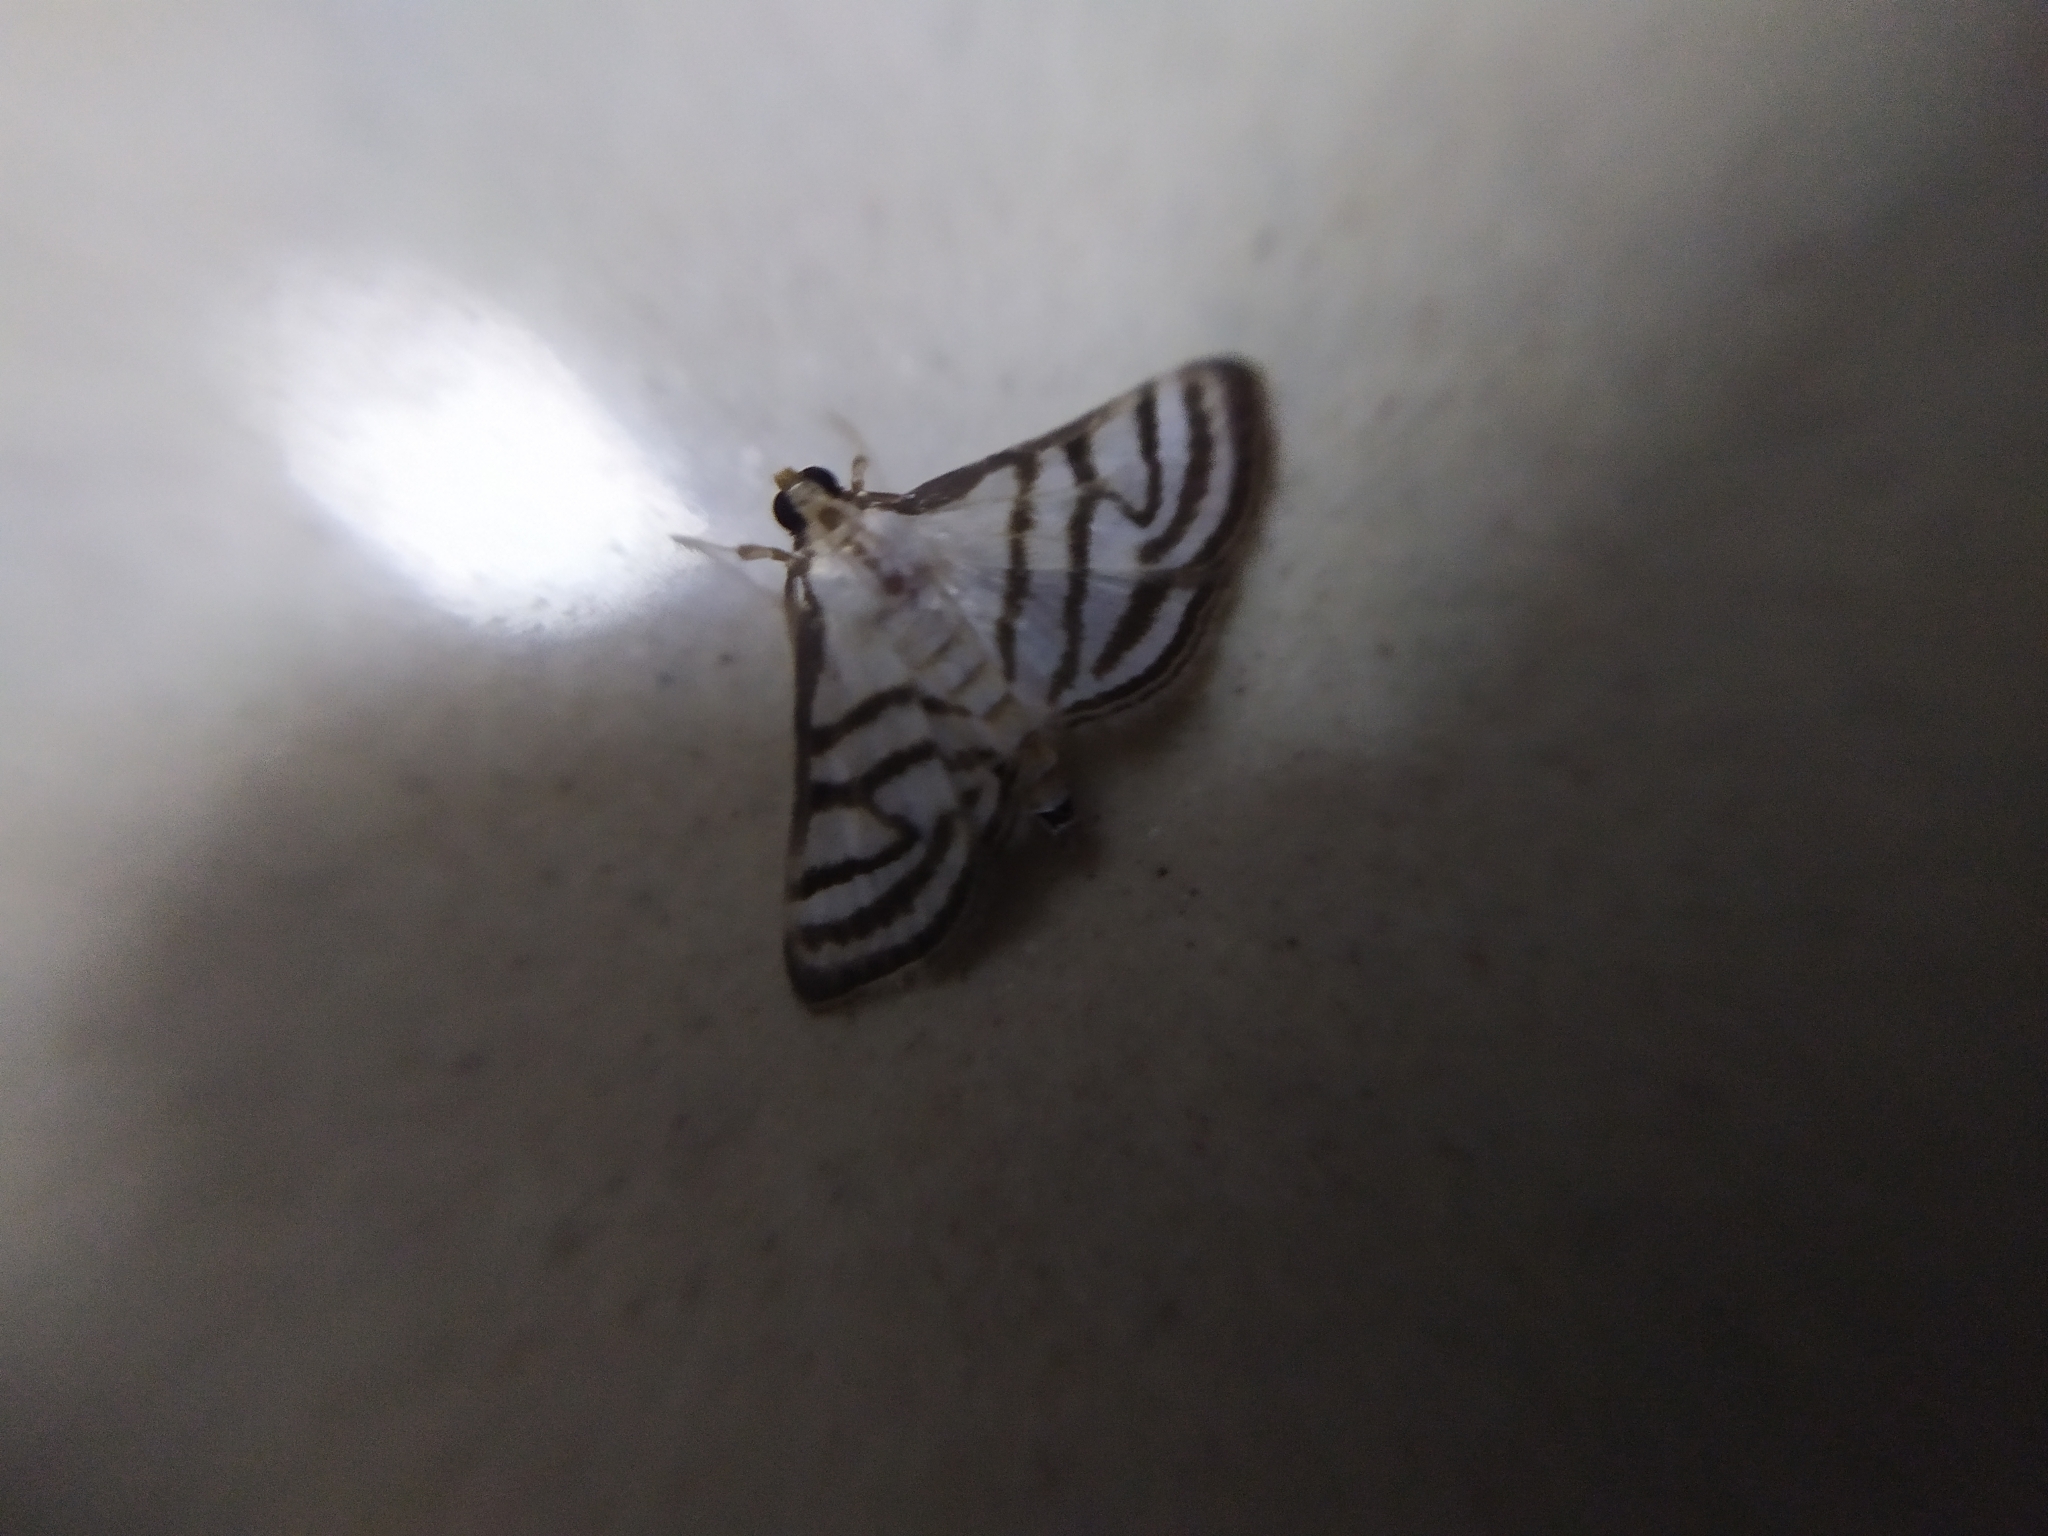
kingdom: Animalia
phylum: Arthropoda
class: Insecta
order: Lepidoptera
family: Crambidae
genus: Ravanoa
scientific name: Ravanoa xiphialis
